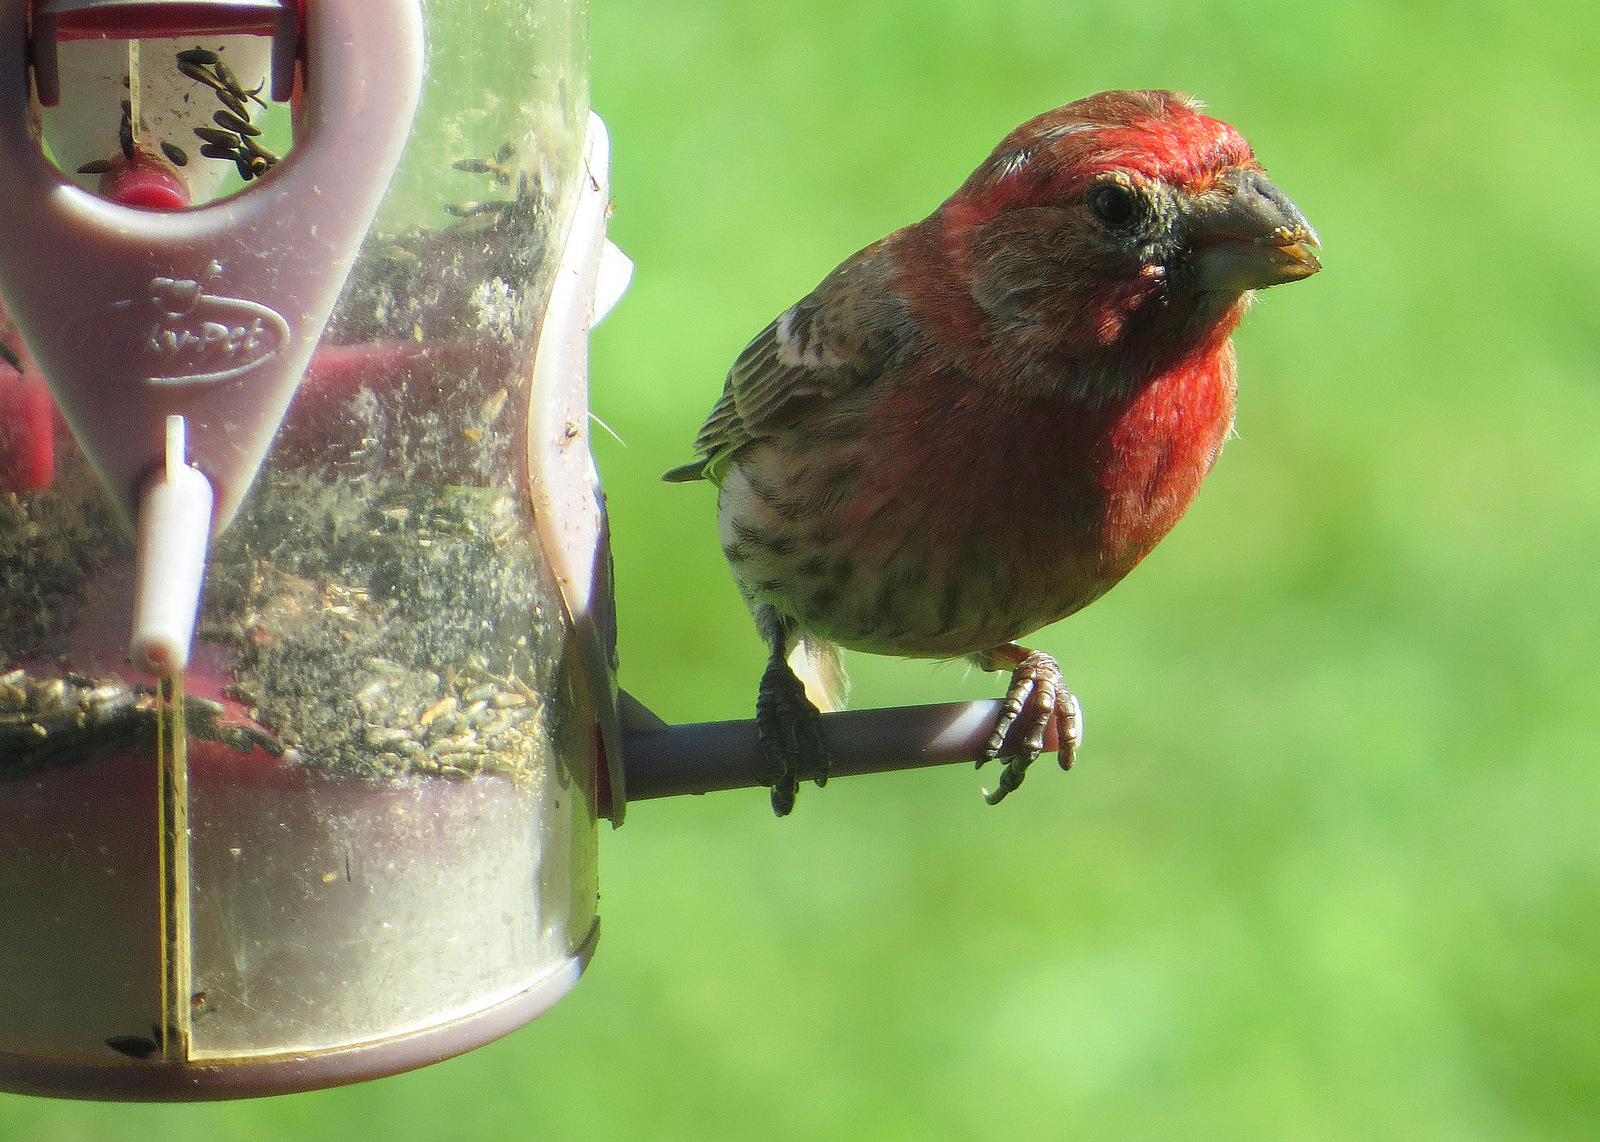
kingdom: Animalia
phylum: Chordata
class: Aves
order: Passeriformes
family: Fringillidae
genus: Haemorhous
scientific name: Haemorhous mexicanus
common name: House finch
